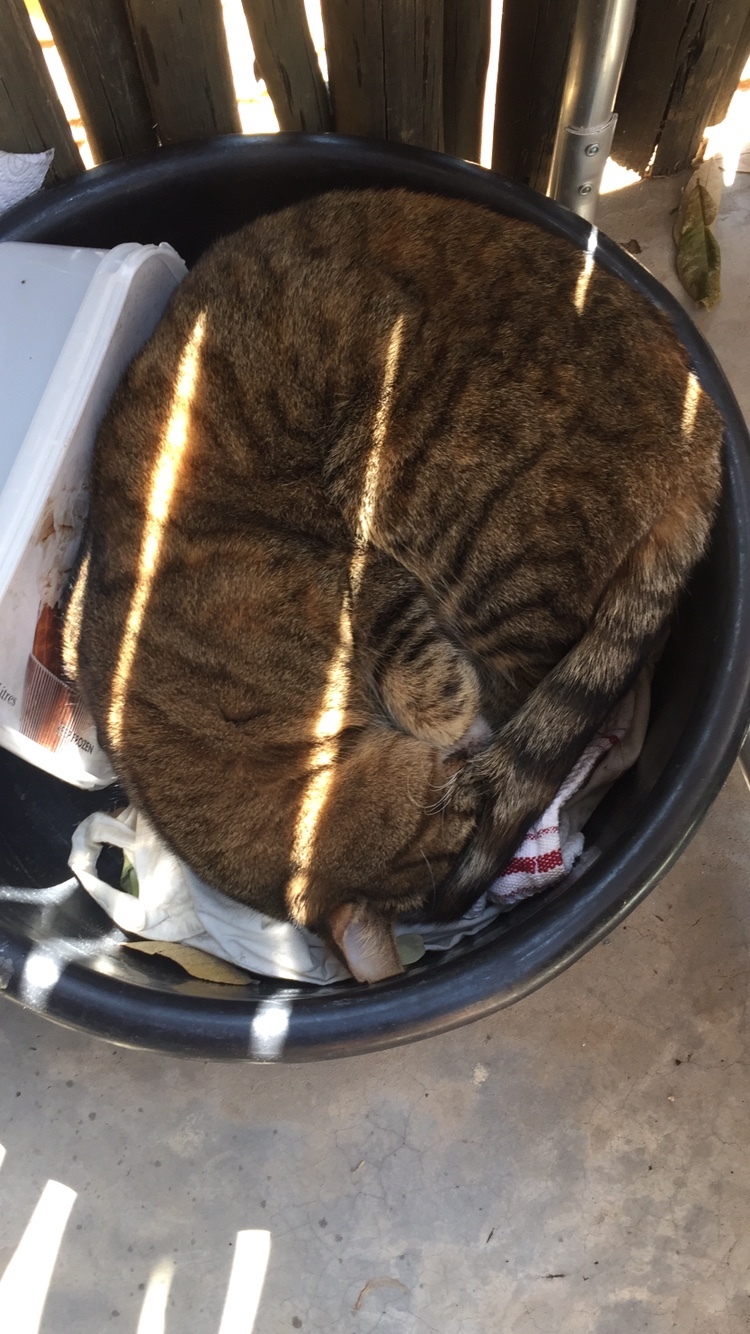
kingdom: Animalia
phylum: Chordata
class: Mammalia
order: Carnivora
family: Felidae
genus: Felis
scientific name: Felis catus
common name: Domestic cat
